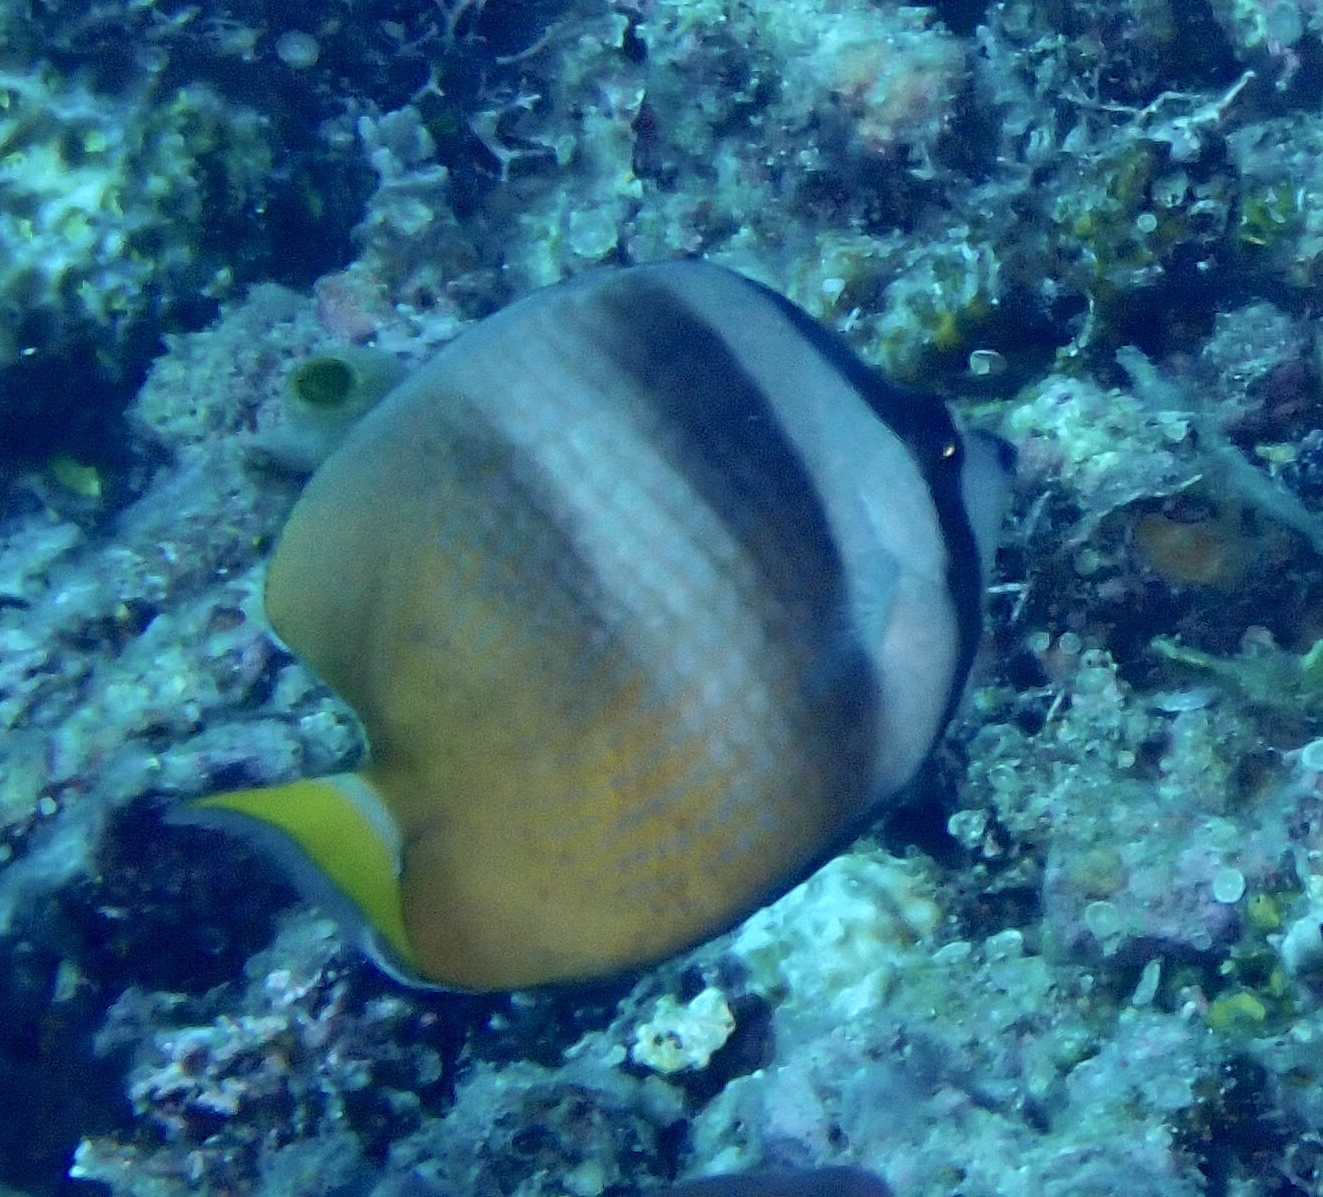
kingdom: Animalia
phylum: Chordata
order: Perciformes
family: Chaetodontidae
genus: Chaetodon
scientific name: Chaetodon kleinii
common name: Klein's butterflyfish
